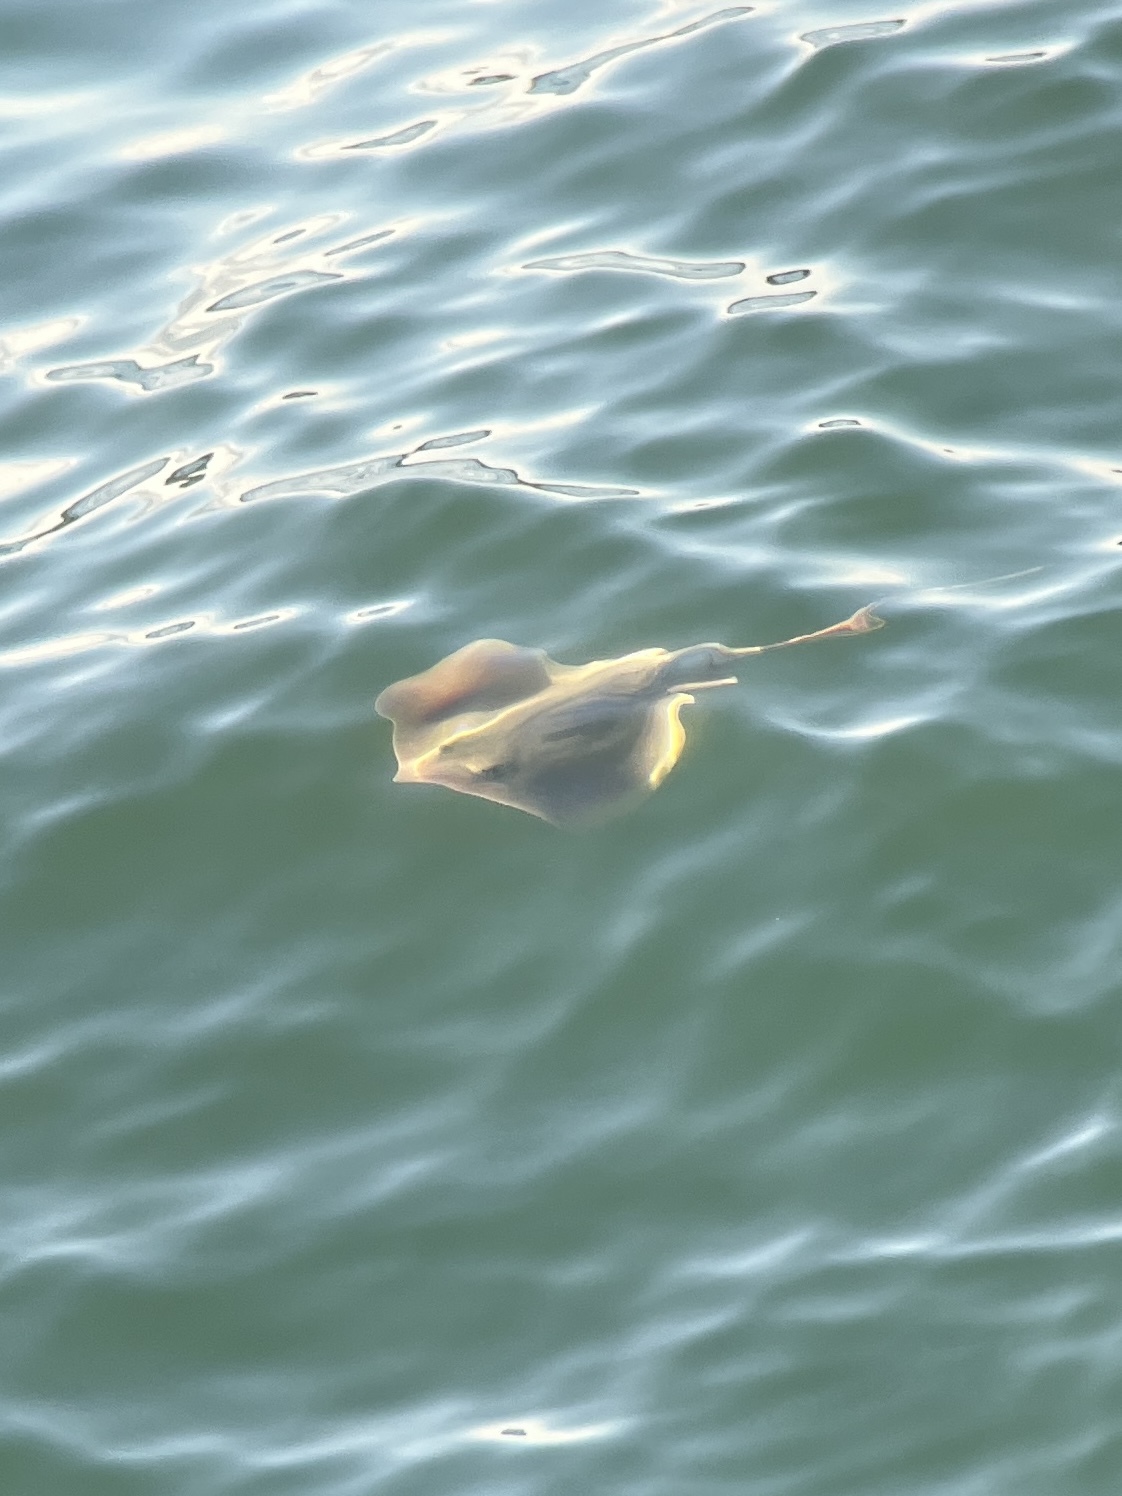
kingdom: Animalia
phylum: Chordata
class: Elasmobranchii
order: Myliobatiformes
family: Dasyatidae
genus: Hypanus
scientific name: Hypanus sabinus
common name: Atlantic stingray
